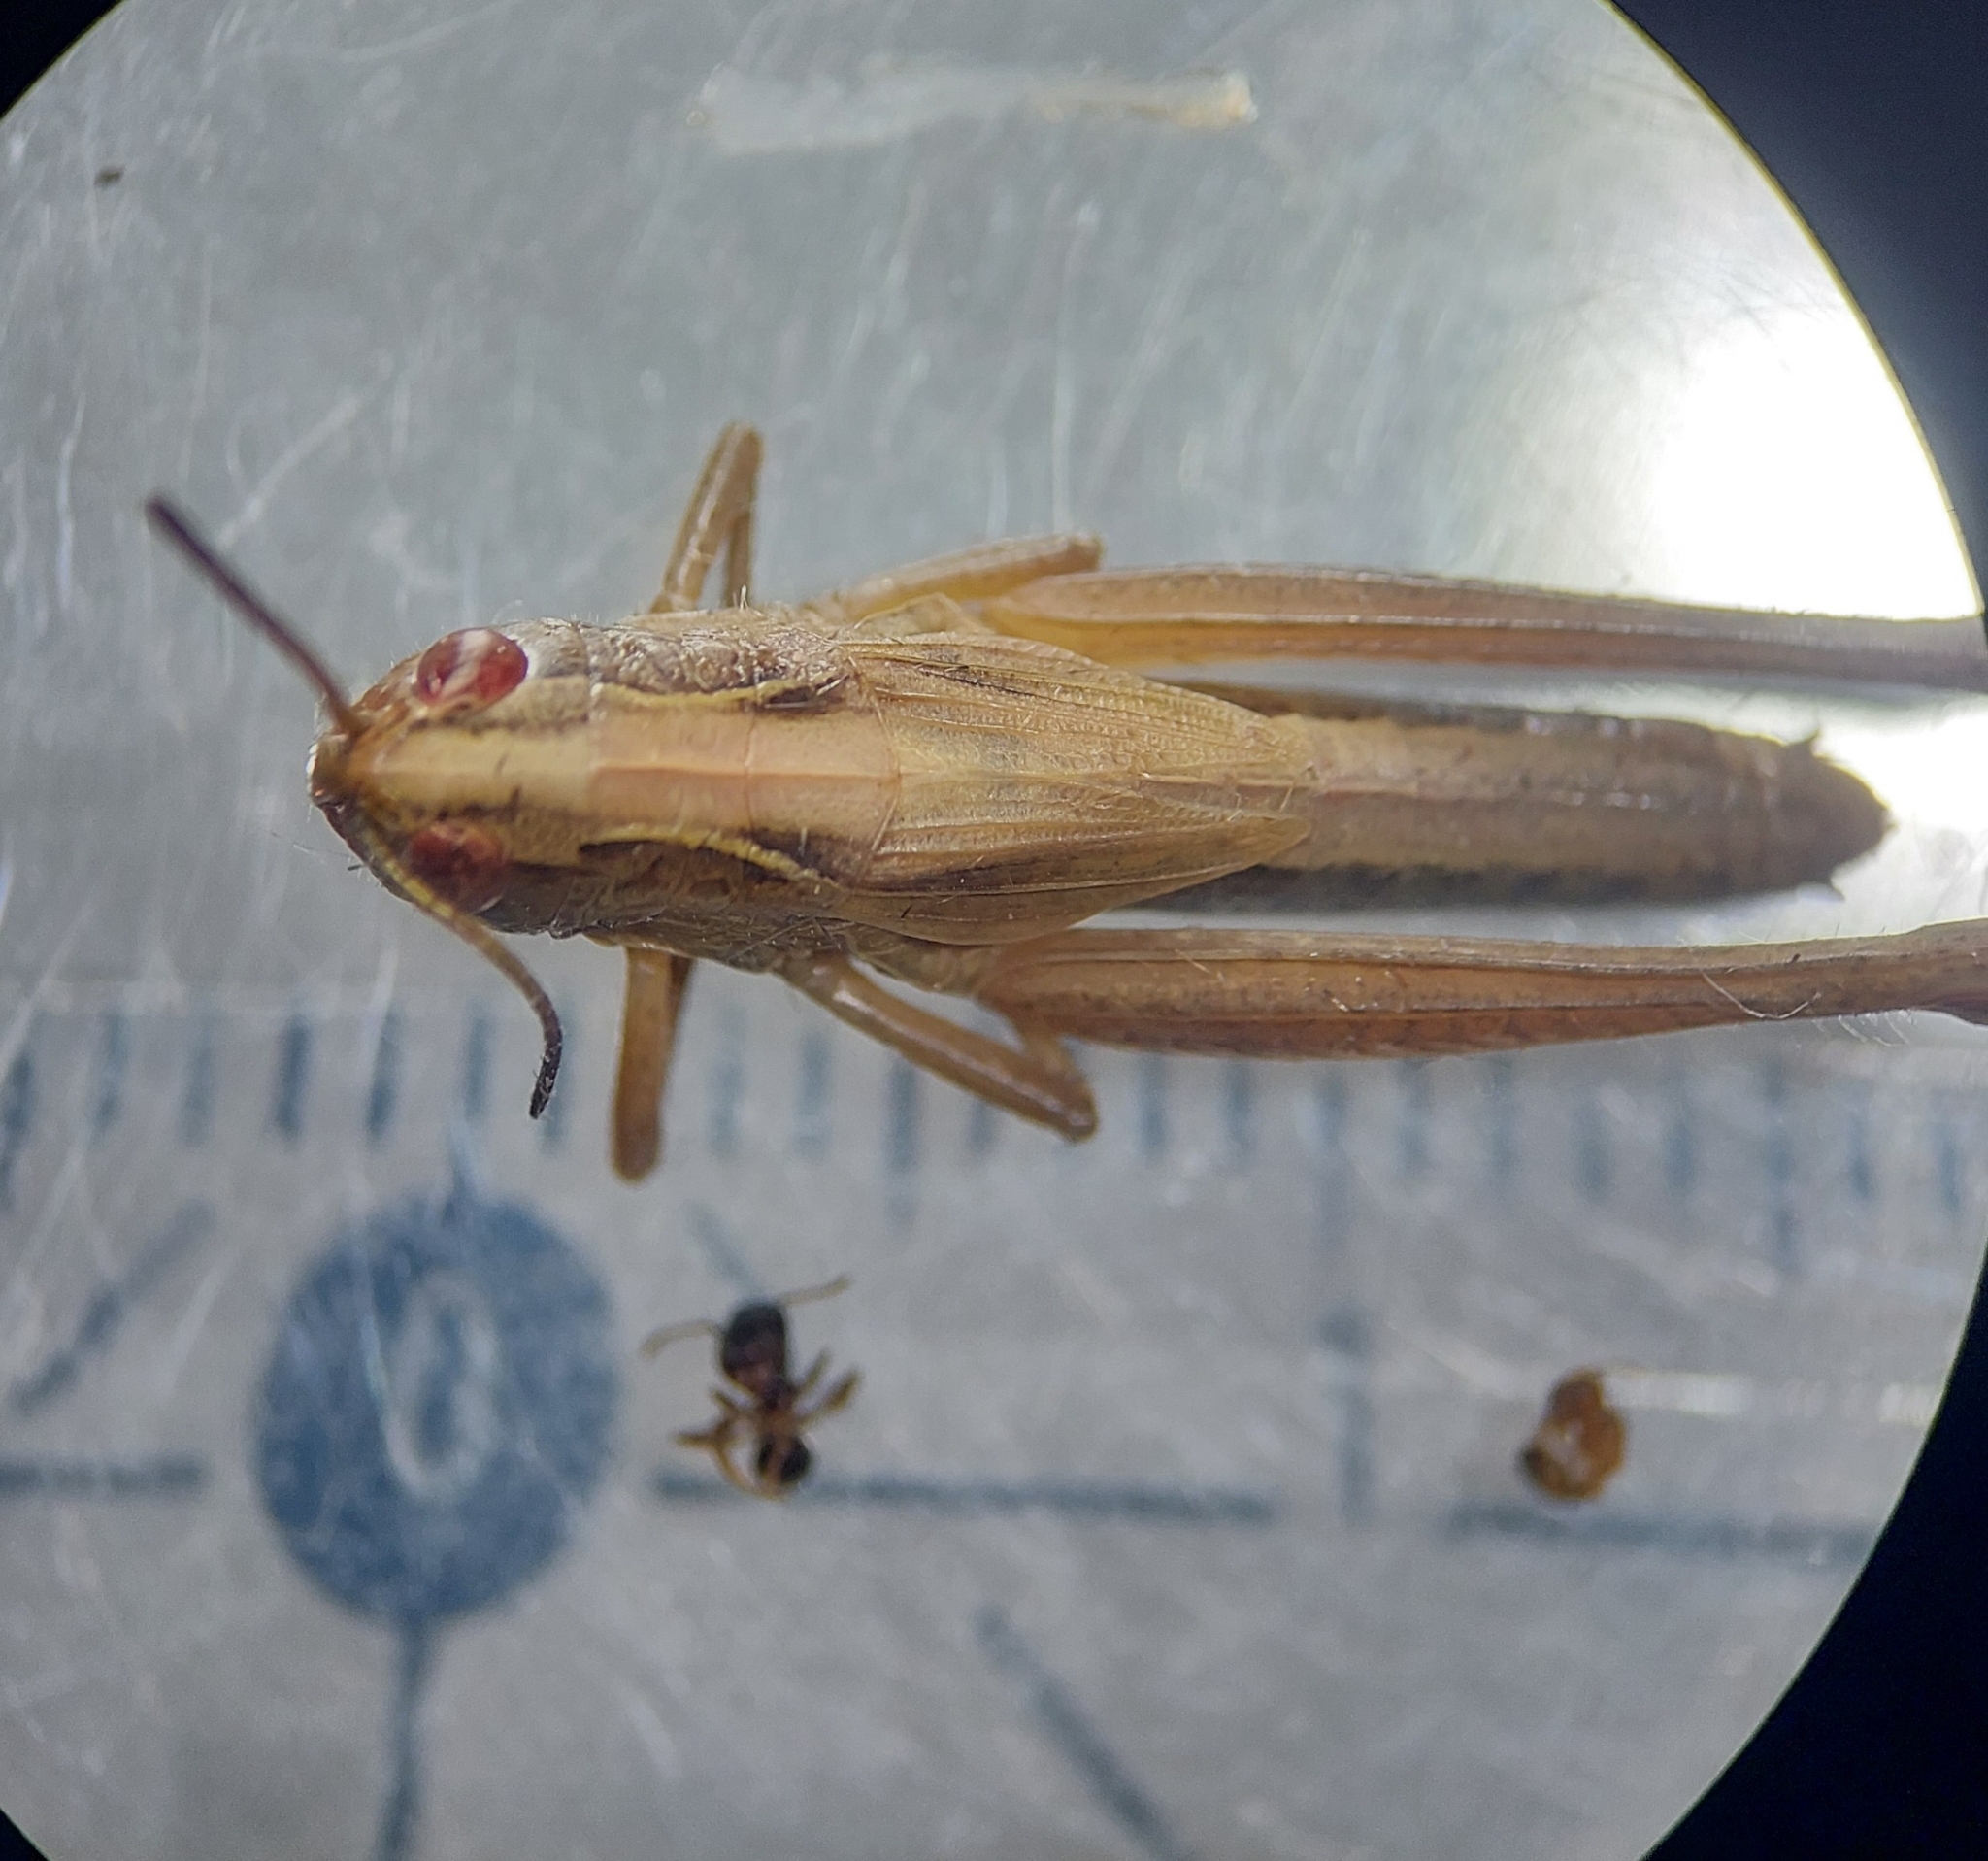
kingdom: Animalia
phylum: Arthropoda
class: Insecta
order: Orthoptera
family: Acrididae
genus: Pseudochorthippus
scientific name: Pseudochorthippus parallelus
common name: Meadow grasshopper
